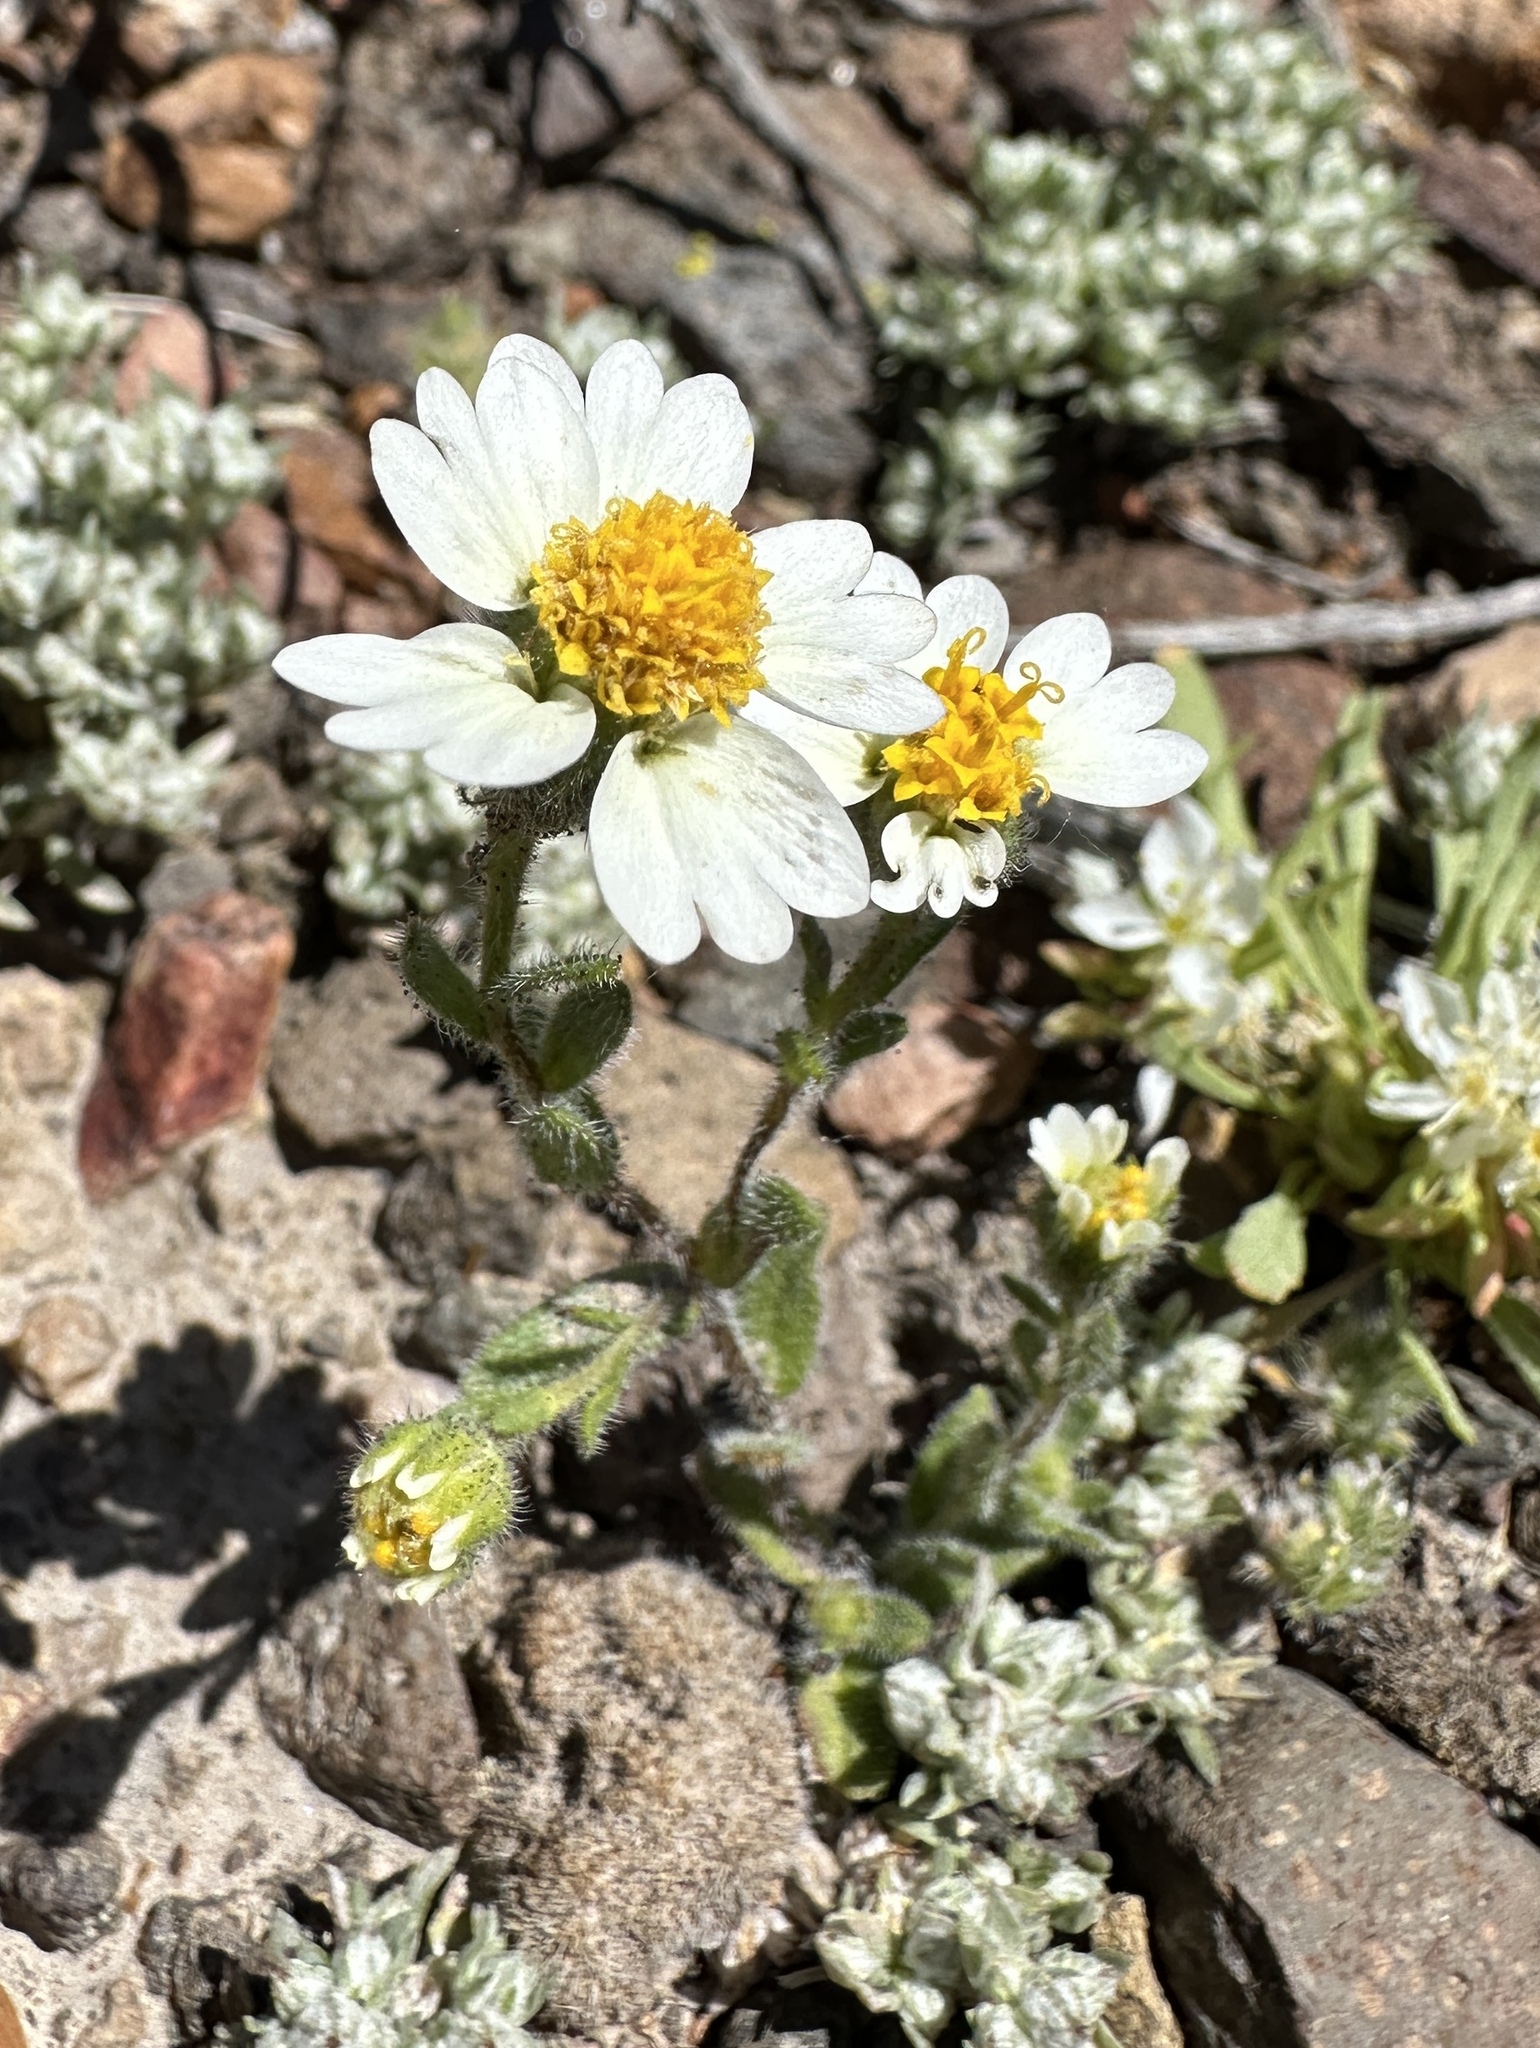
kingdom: Plantae
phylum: Tracheophyta
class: Magnoliopsida
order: Asterales
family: Asteraceae
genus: Layia
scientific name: Layia glandulosa
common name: White layia
